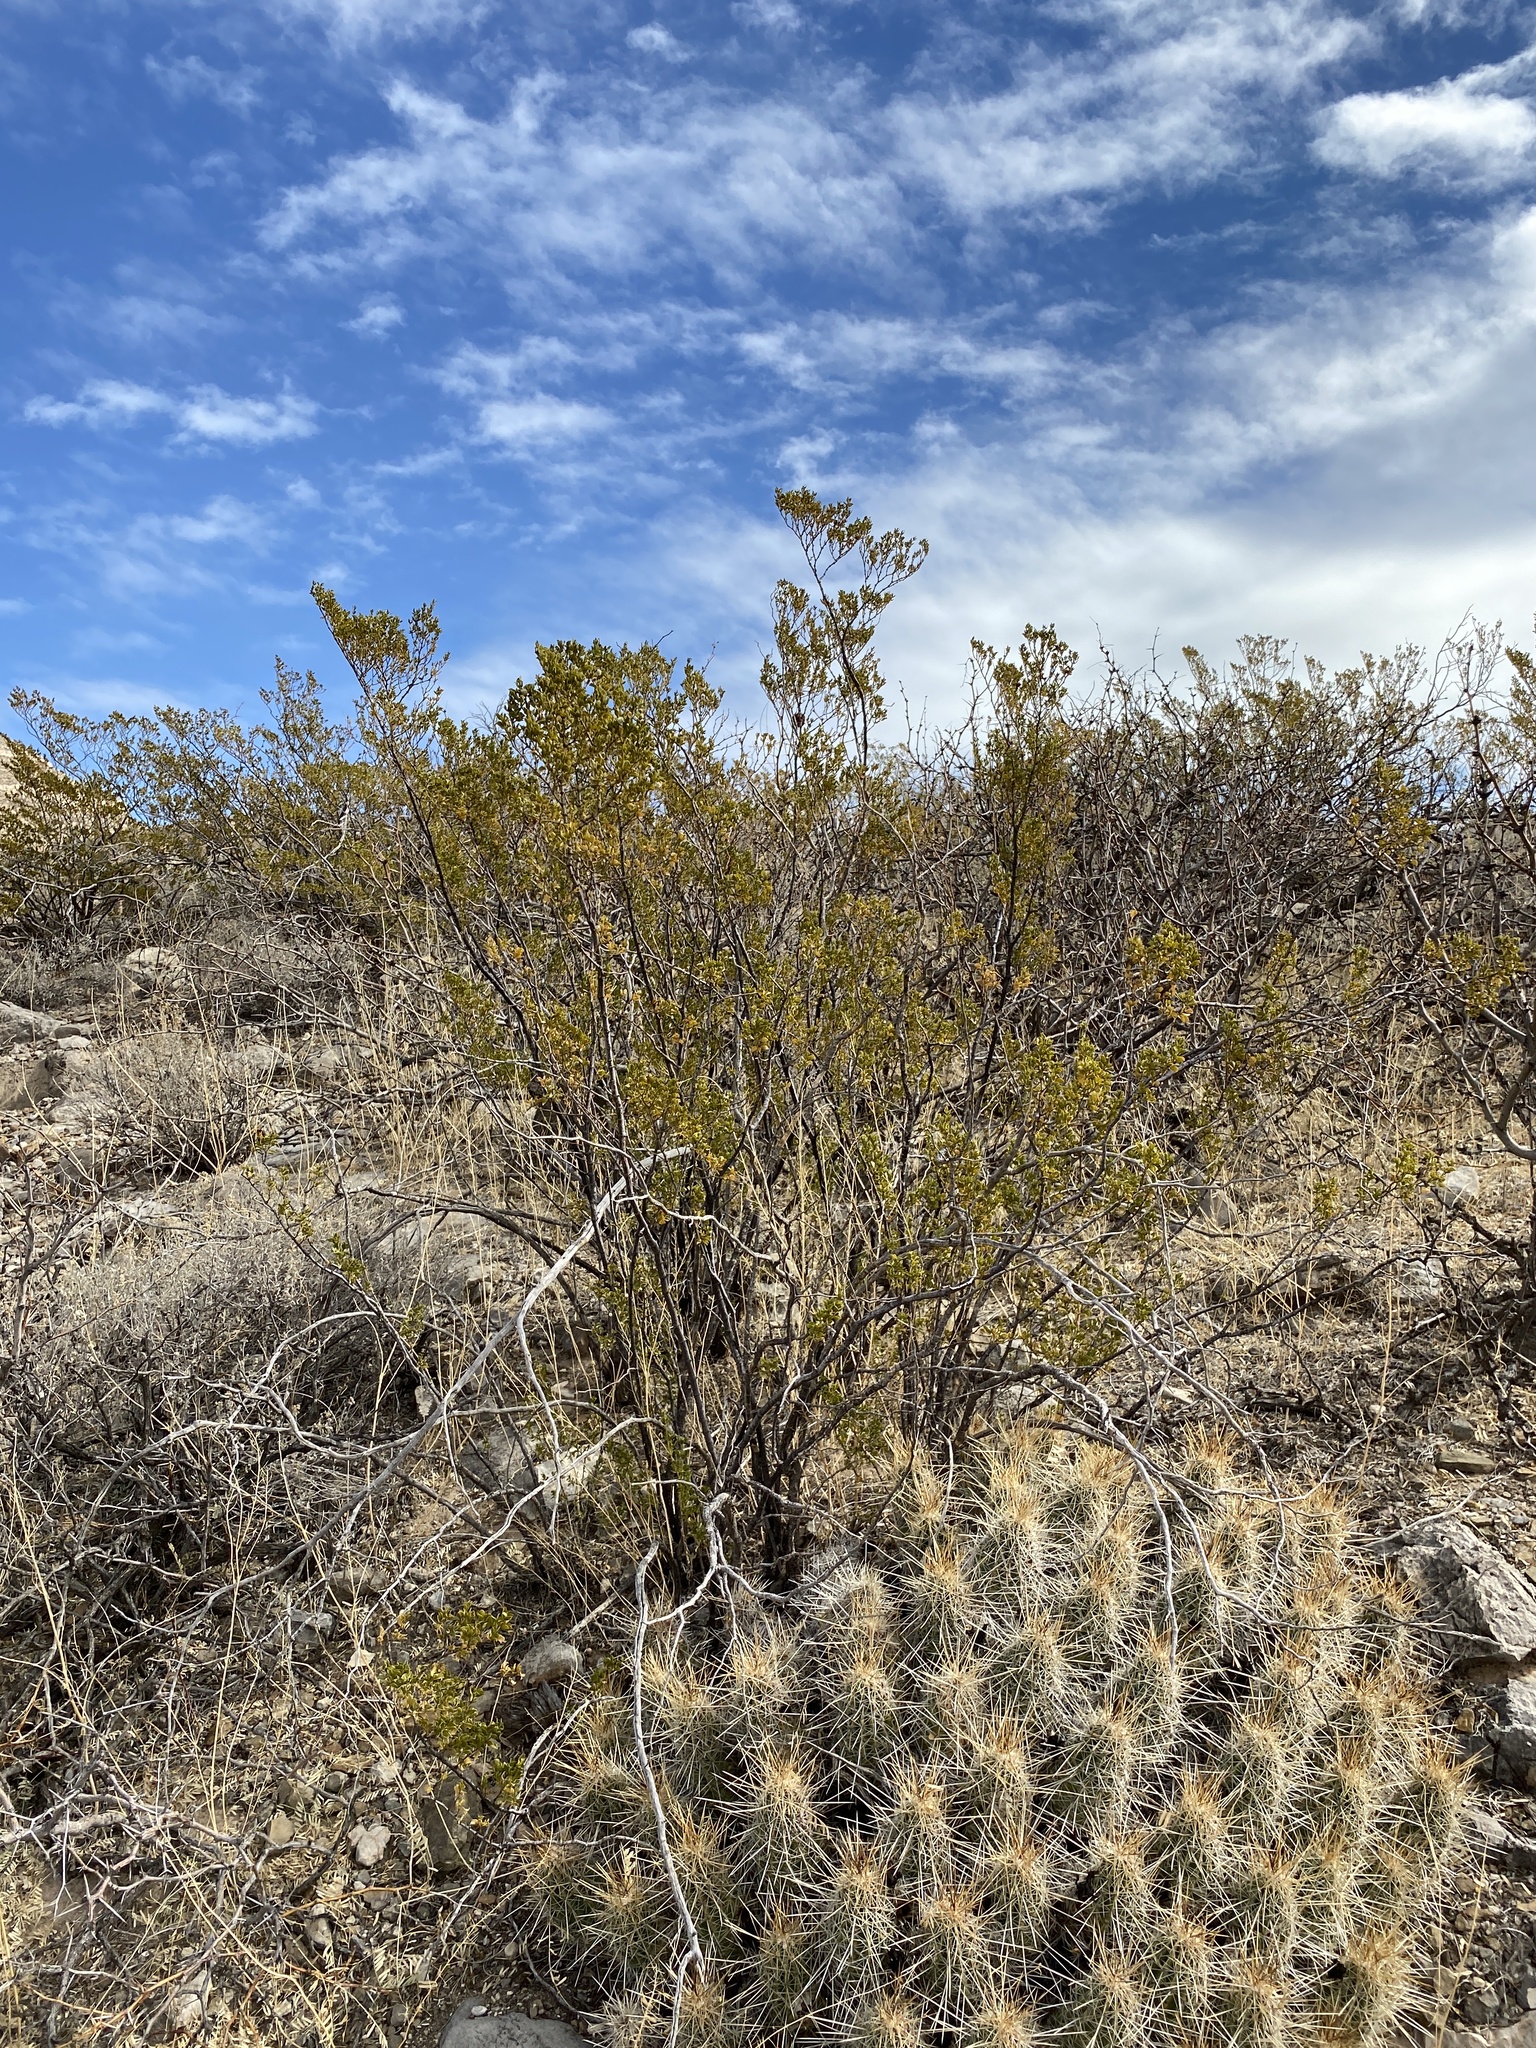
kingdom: Plantae
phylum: Tracheophyta
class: Magnoliopsida
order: Zygophyllales
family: Zygophyllaceae
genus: Larrea
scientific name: Larrea tridentata
